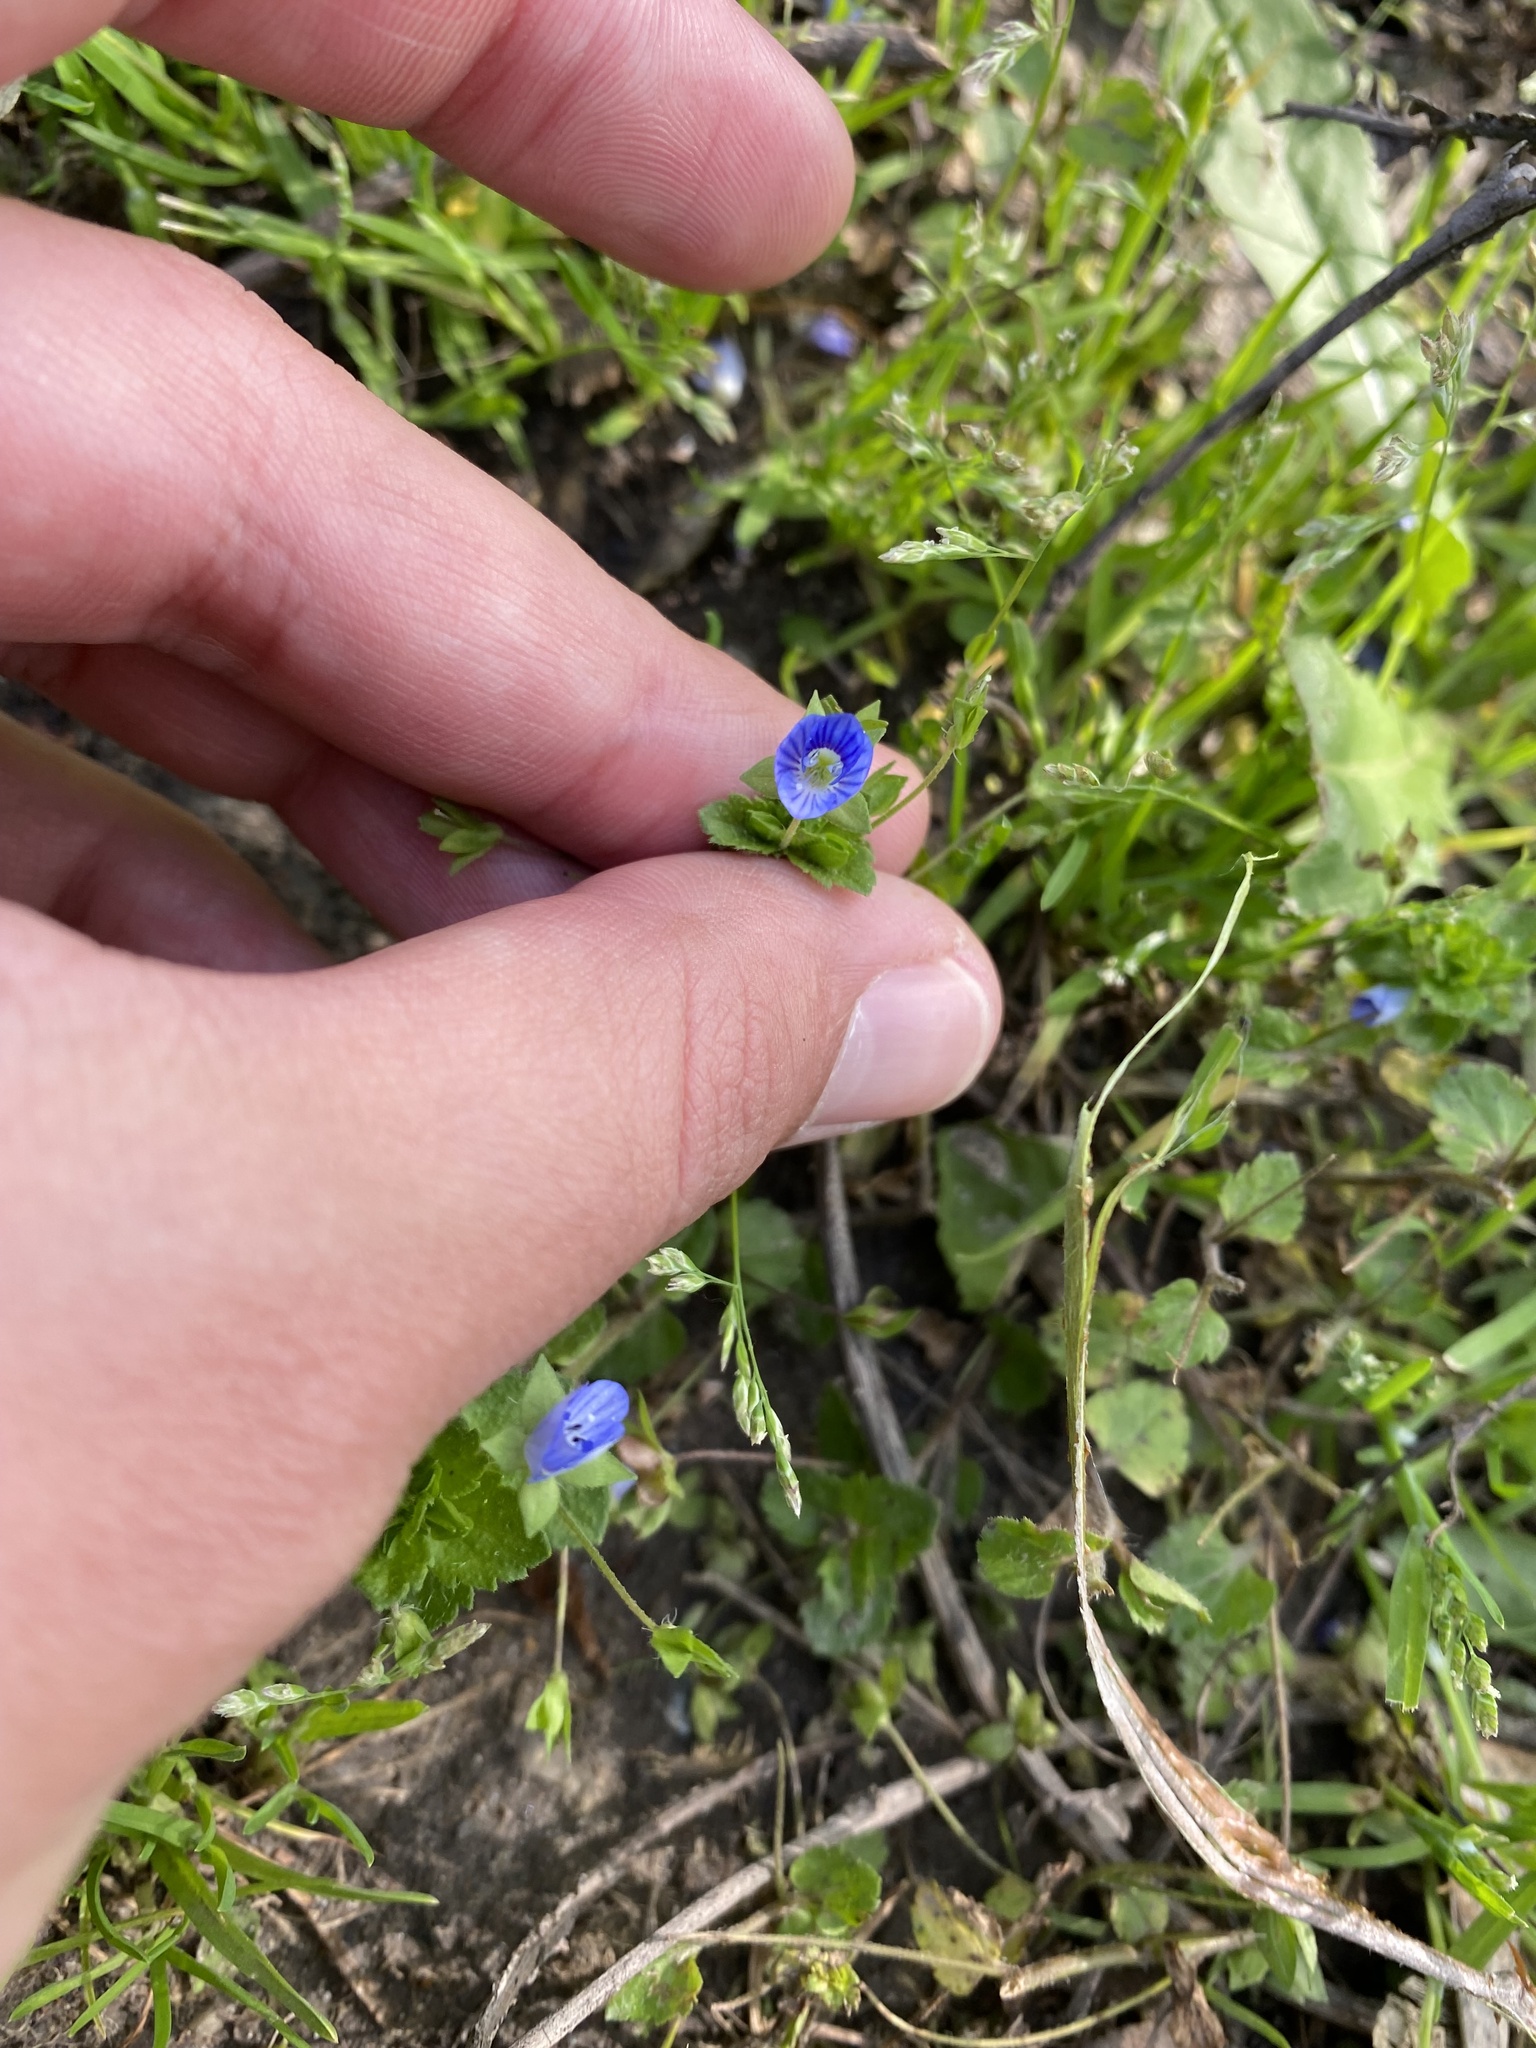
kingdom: Plantae
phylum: Tracheophyta
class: Magnoliopsida
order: Lamiales
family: Plantaginaceae
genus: Veronica
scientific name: Veronica persica
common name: Common field-speedwell
